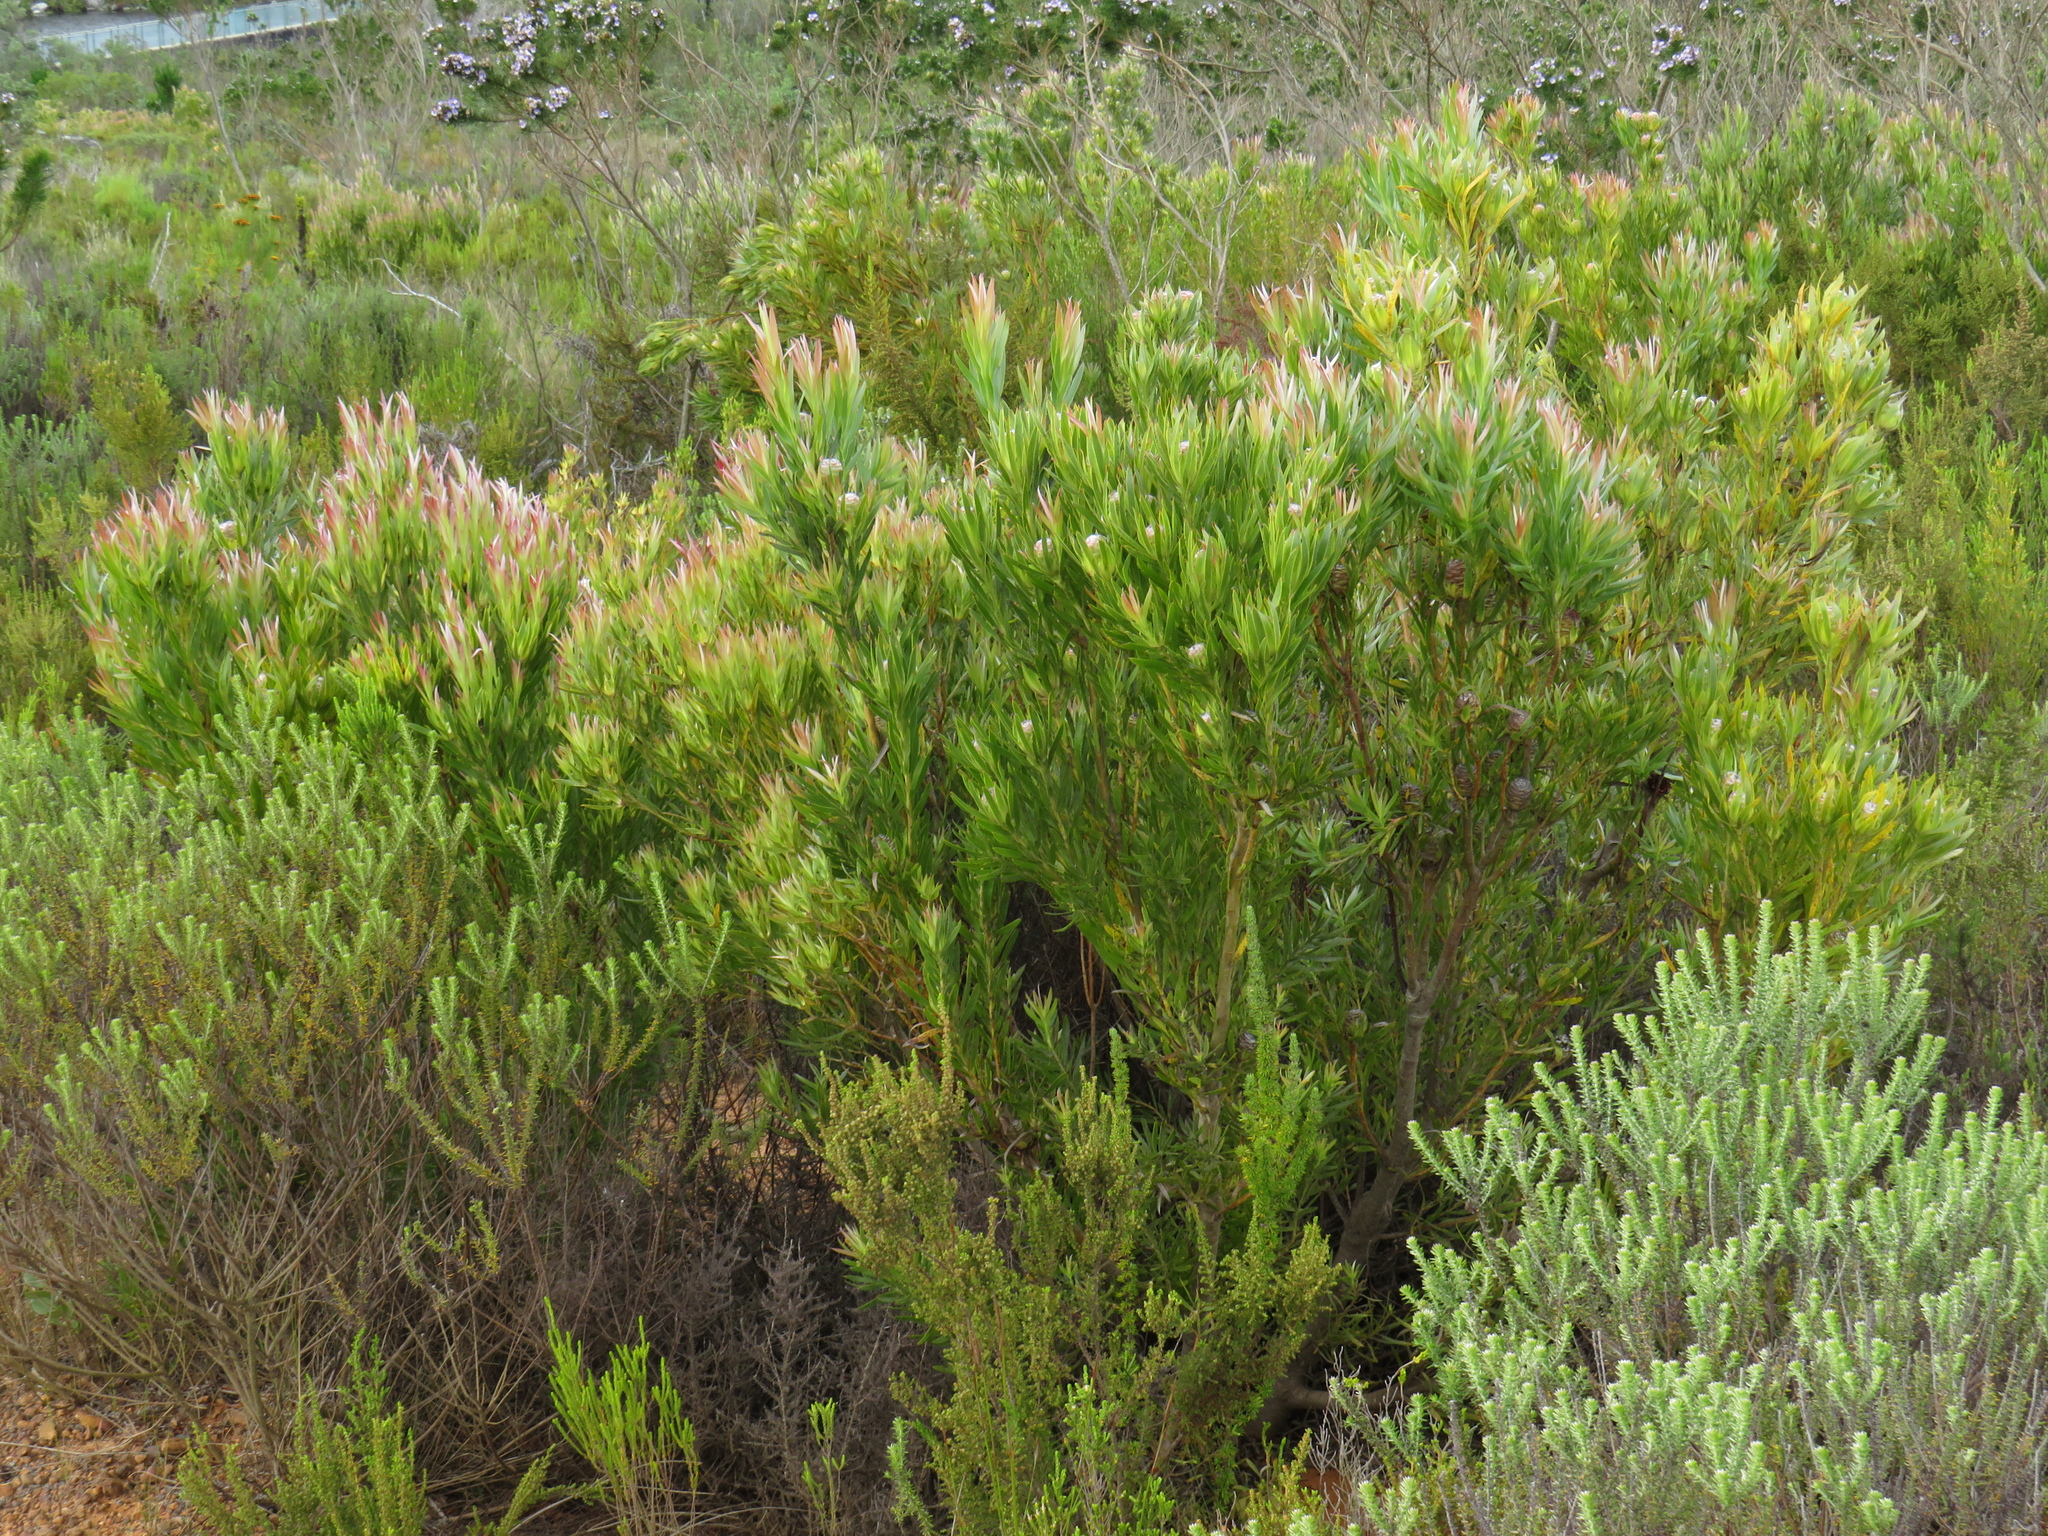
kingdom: Plantae
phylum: Tracheophyta
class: Magnoliopsida
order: Proteales
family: Proteaceae
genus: Leucadendron
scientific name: Leucadendron xanthoconus
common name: Sickle-leaf conebush
